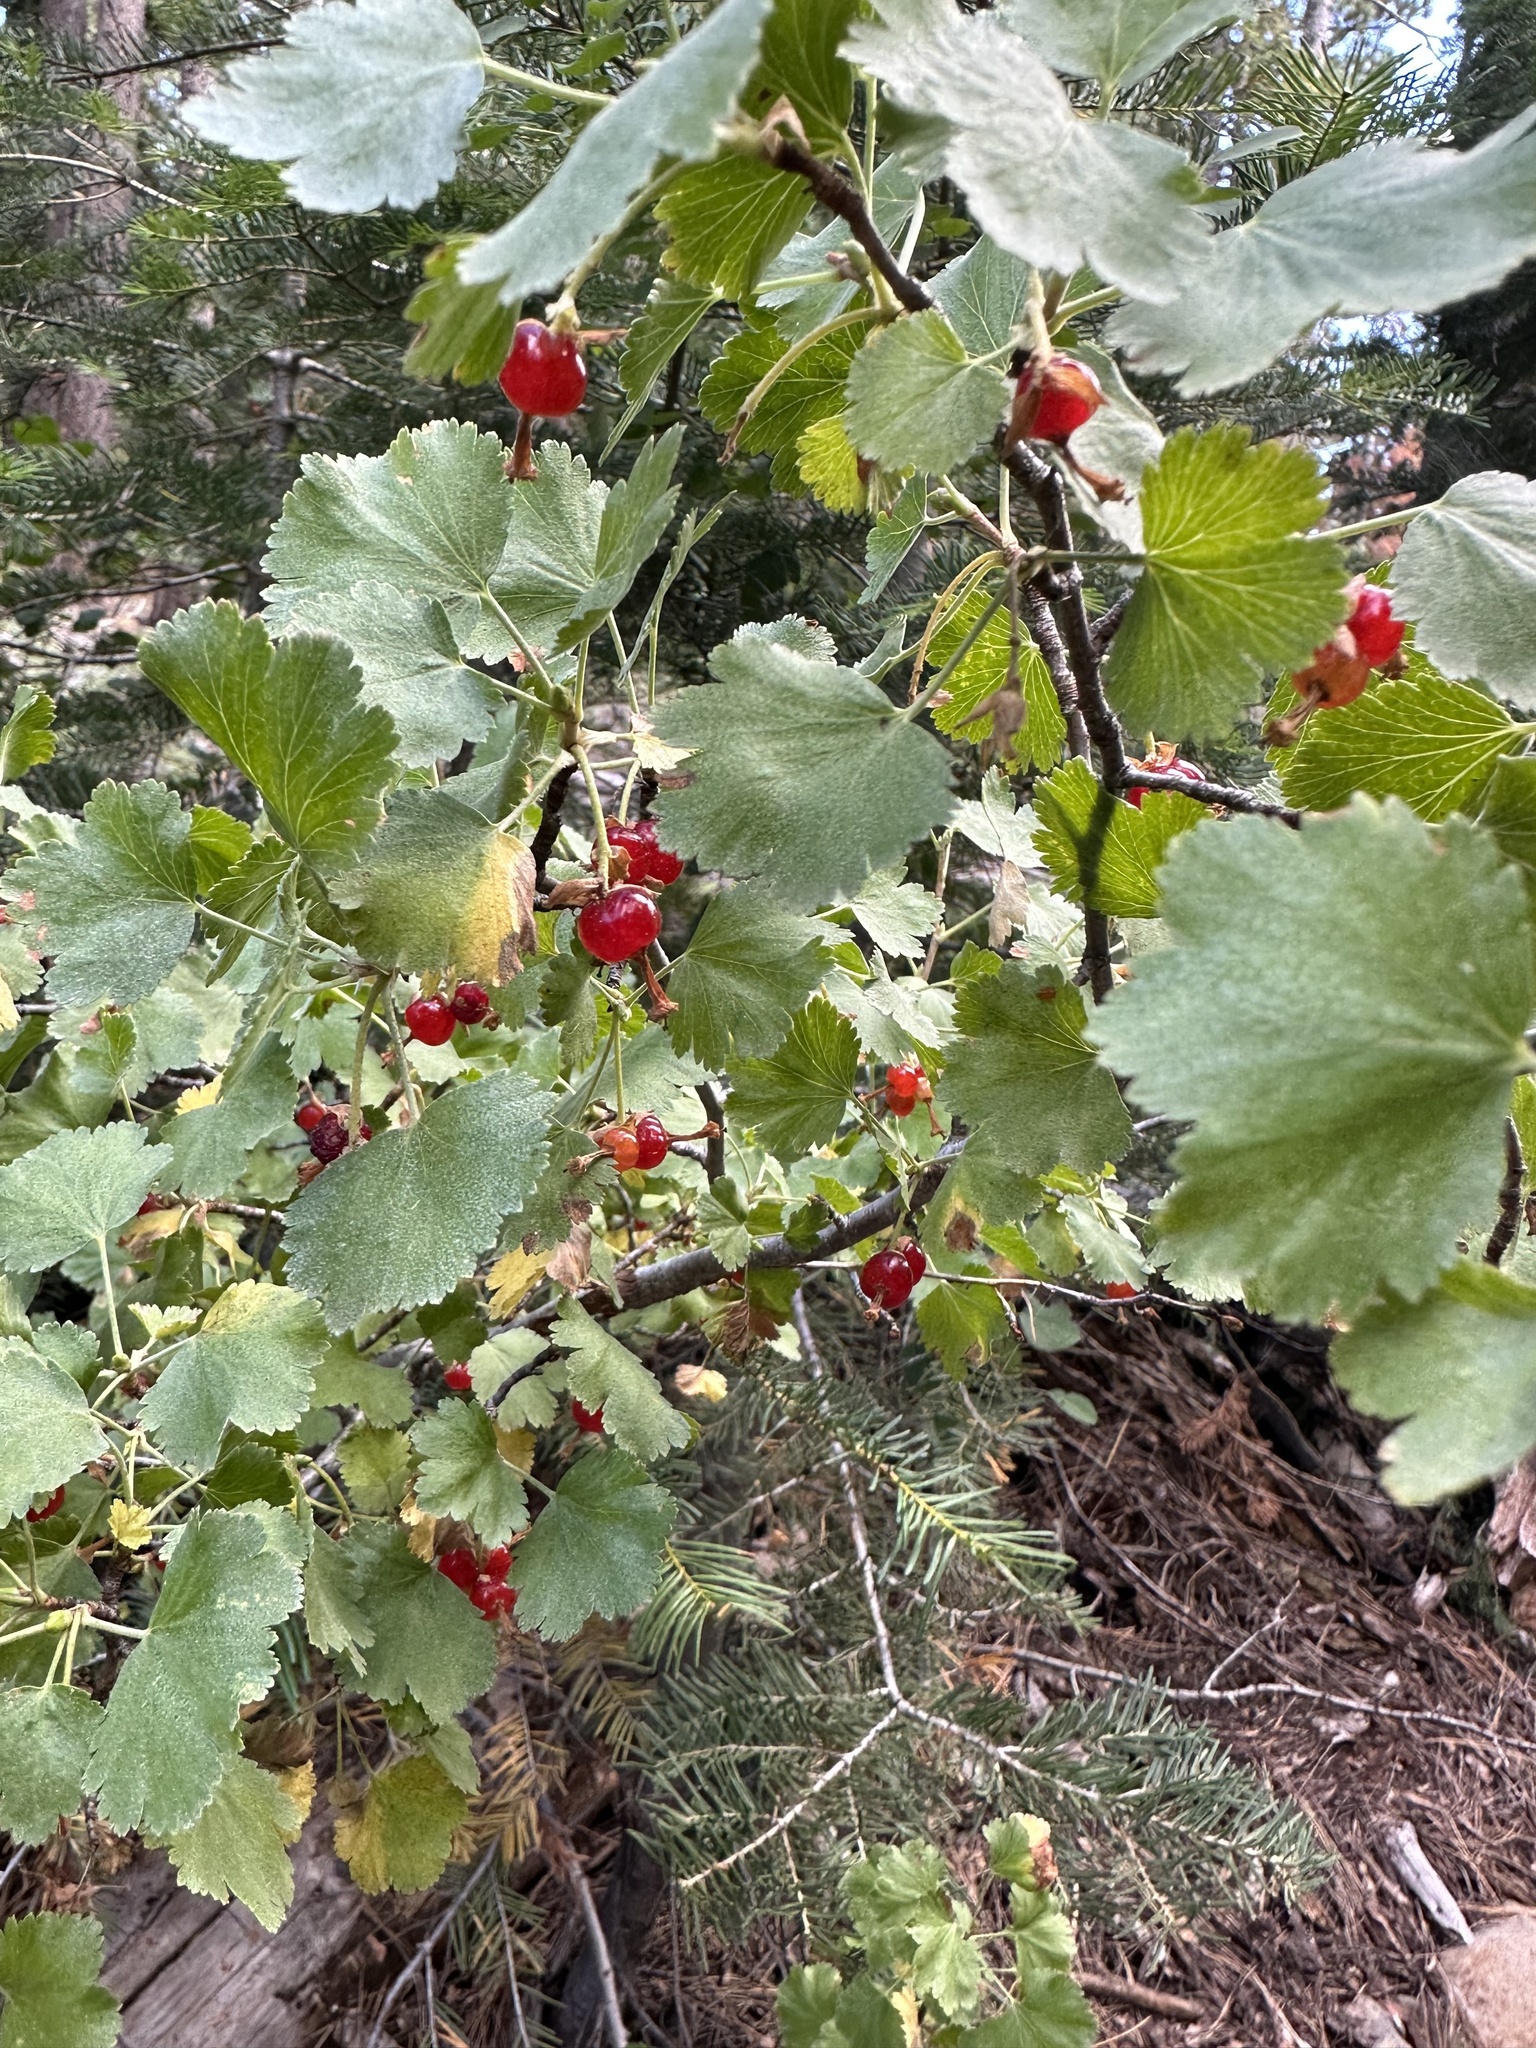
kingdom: Plantae
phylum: Tracheophyta
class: Magnoliopsida
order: Saxifragales
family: Grossulariaceae
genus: Ribes
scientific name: Ribes cereum
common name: Wax currant
